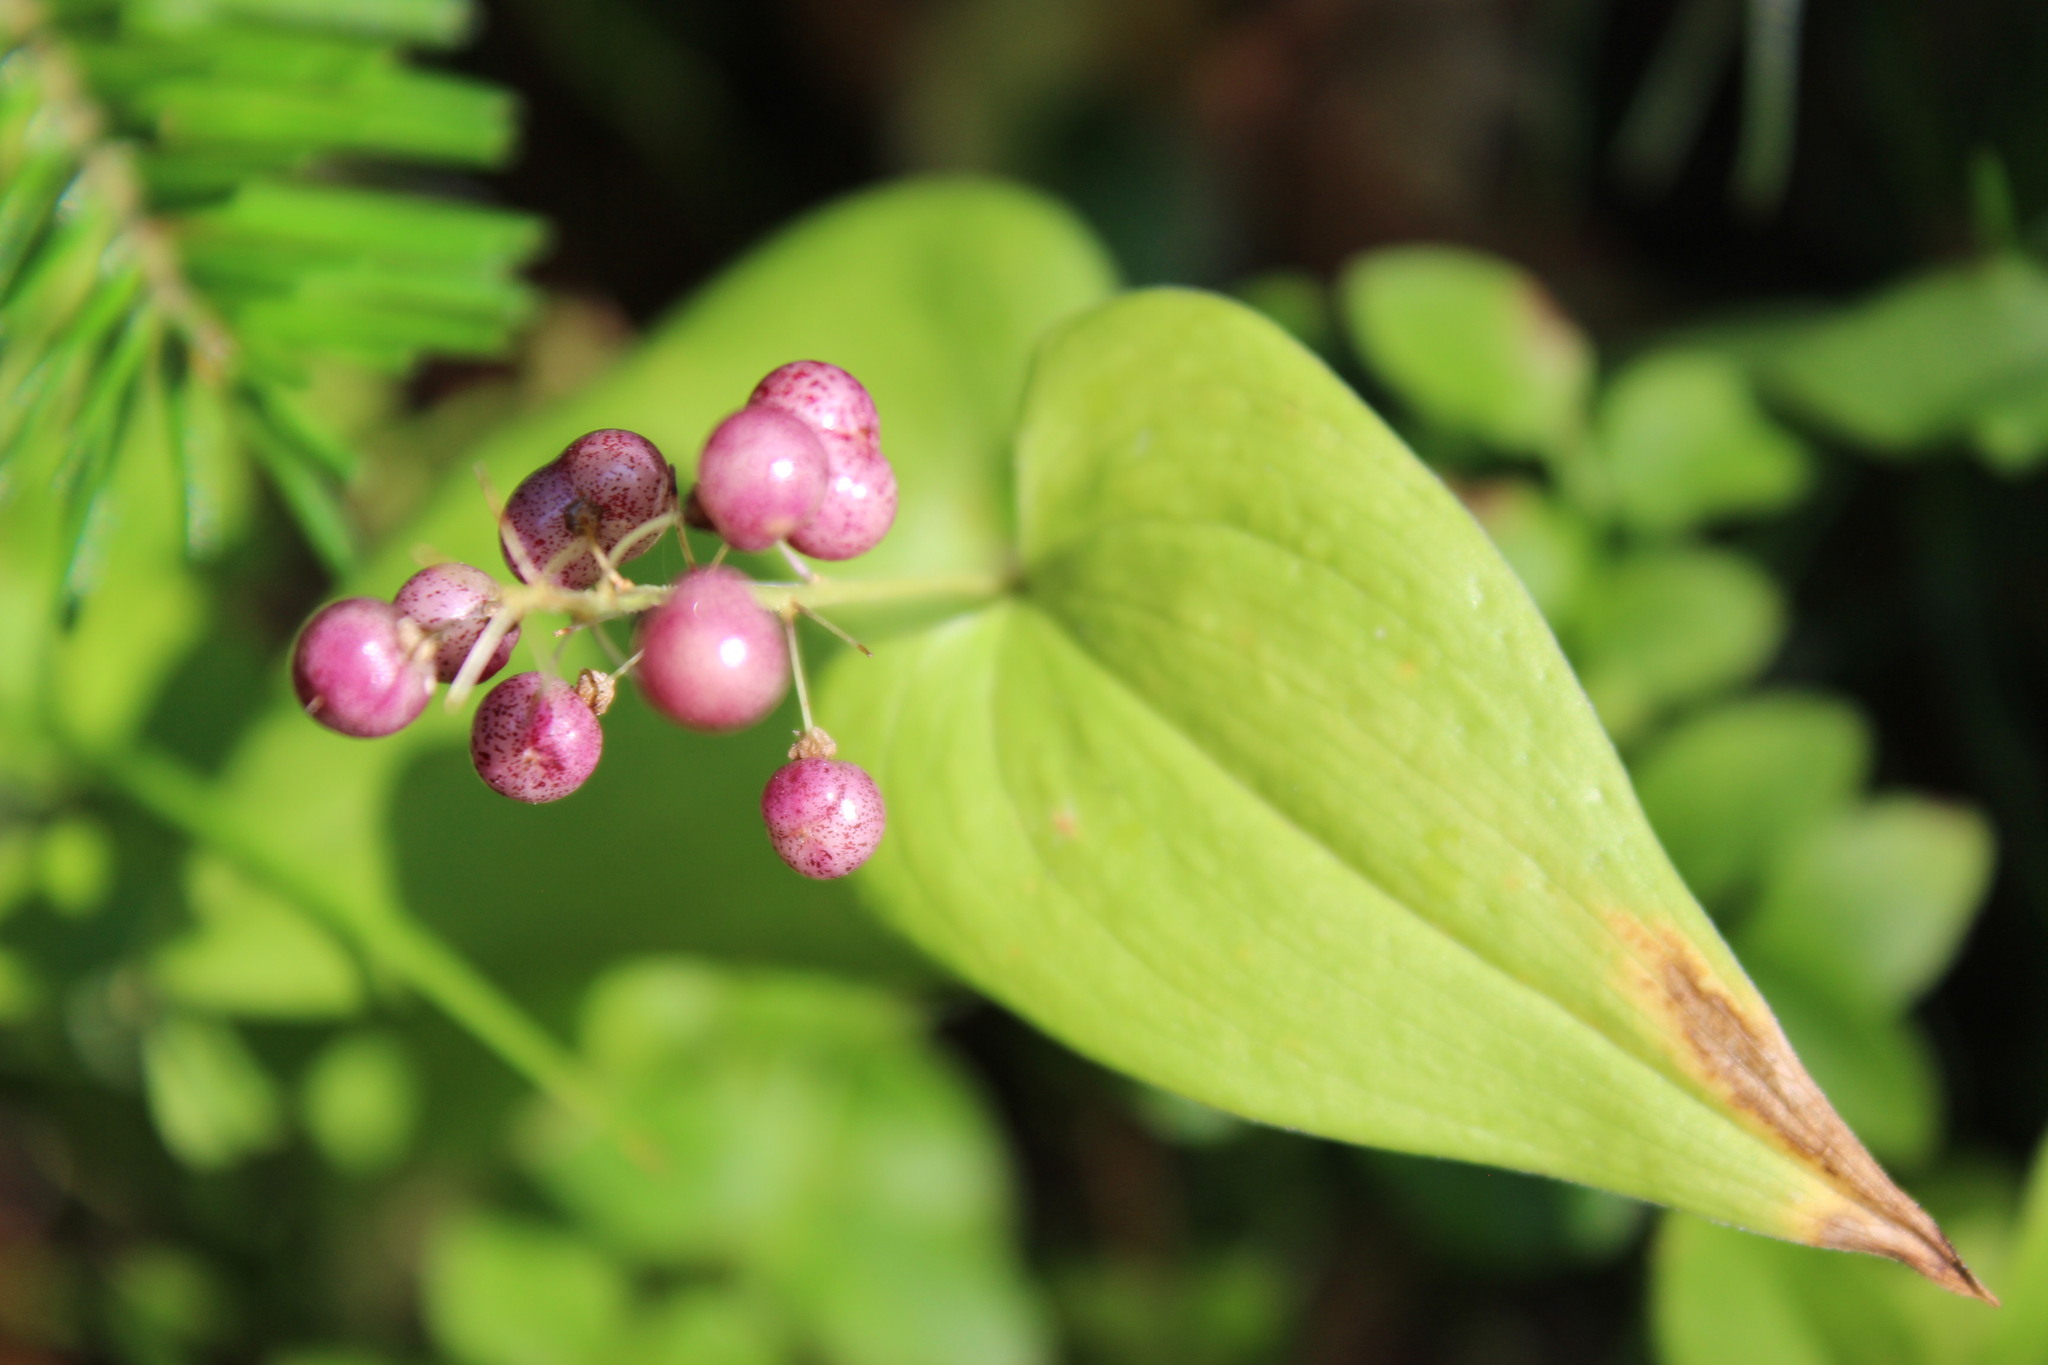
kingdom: Plantae
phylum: Tracheophyta
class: Liliopsida
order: Asparagales
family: Asparagaceae
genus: Maianthemum
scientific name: Maianthemum bifolium
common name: May lily
